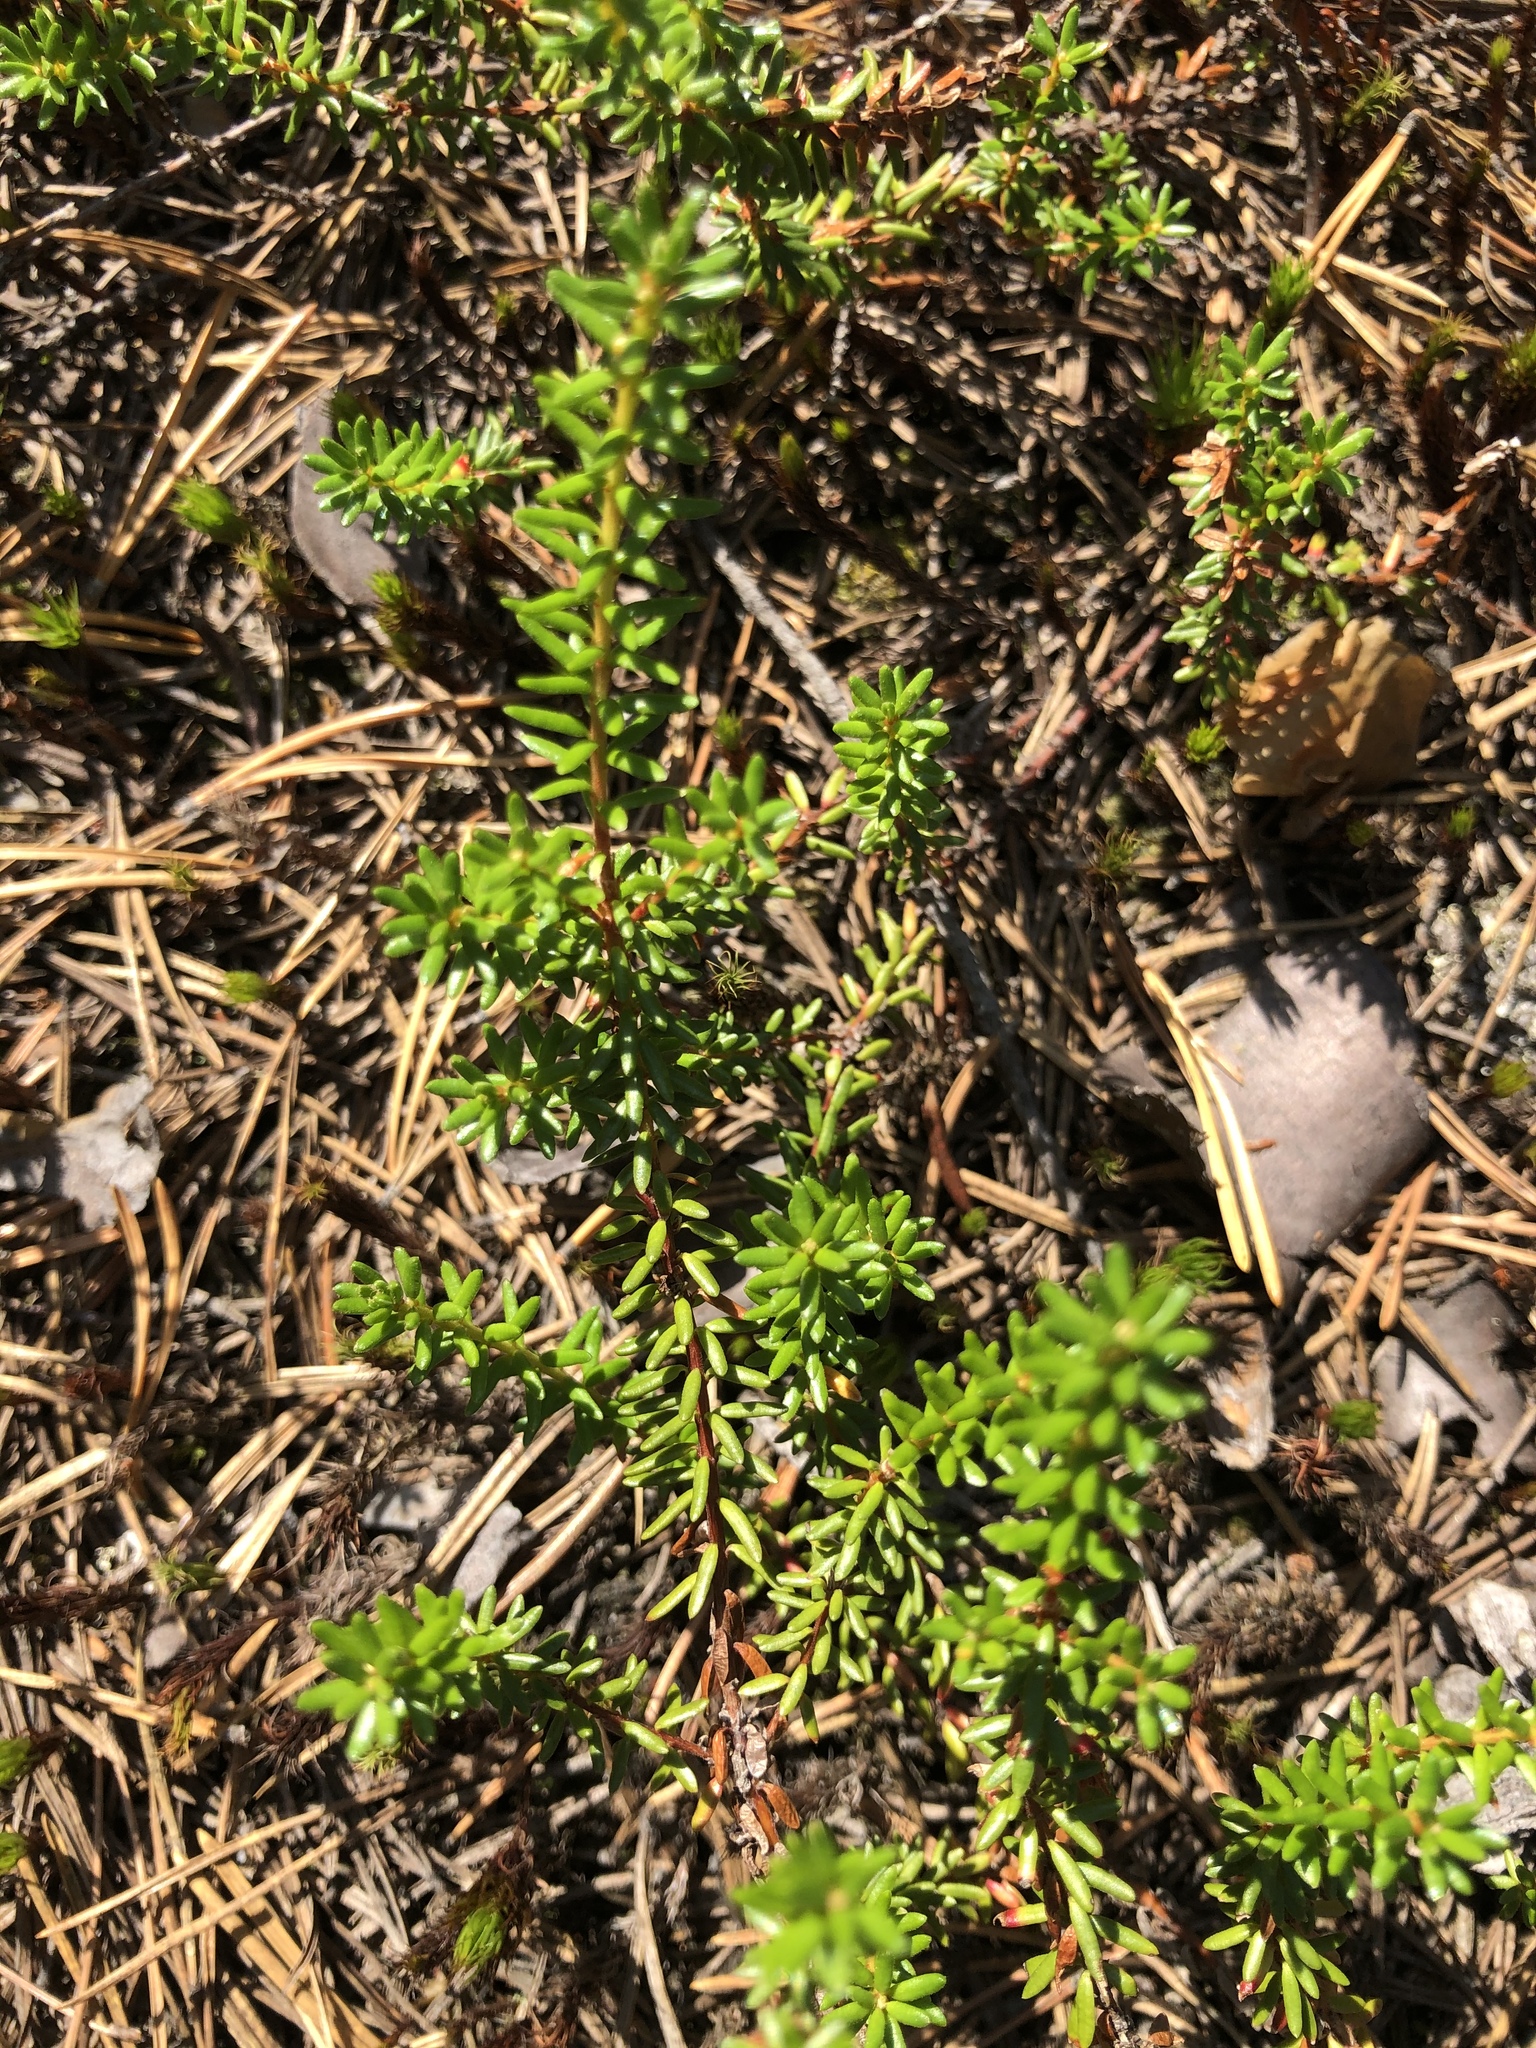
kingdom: Plantae
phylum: Tracheophyta
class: Magnoliopsida
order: Ericales
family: Ericaceae
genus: Empetrum
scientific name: Empetrum nigrum
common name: Black crowberry
